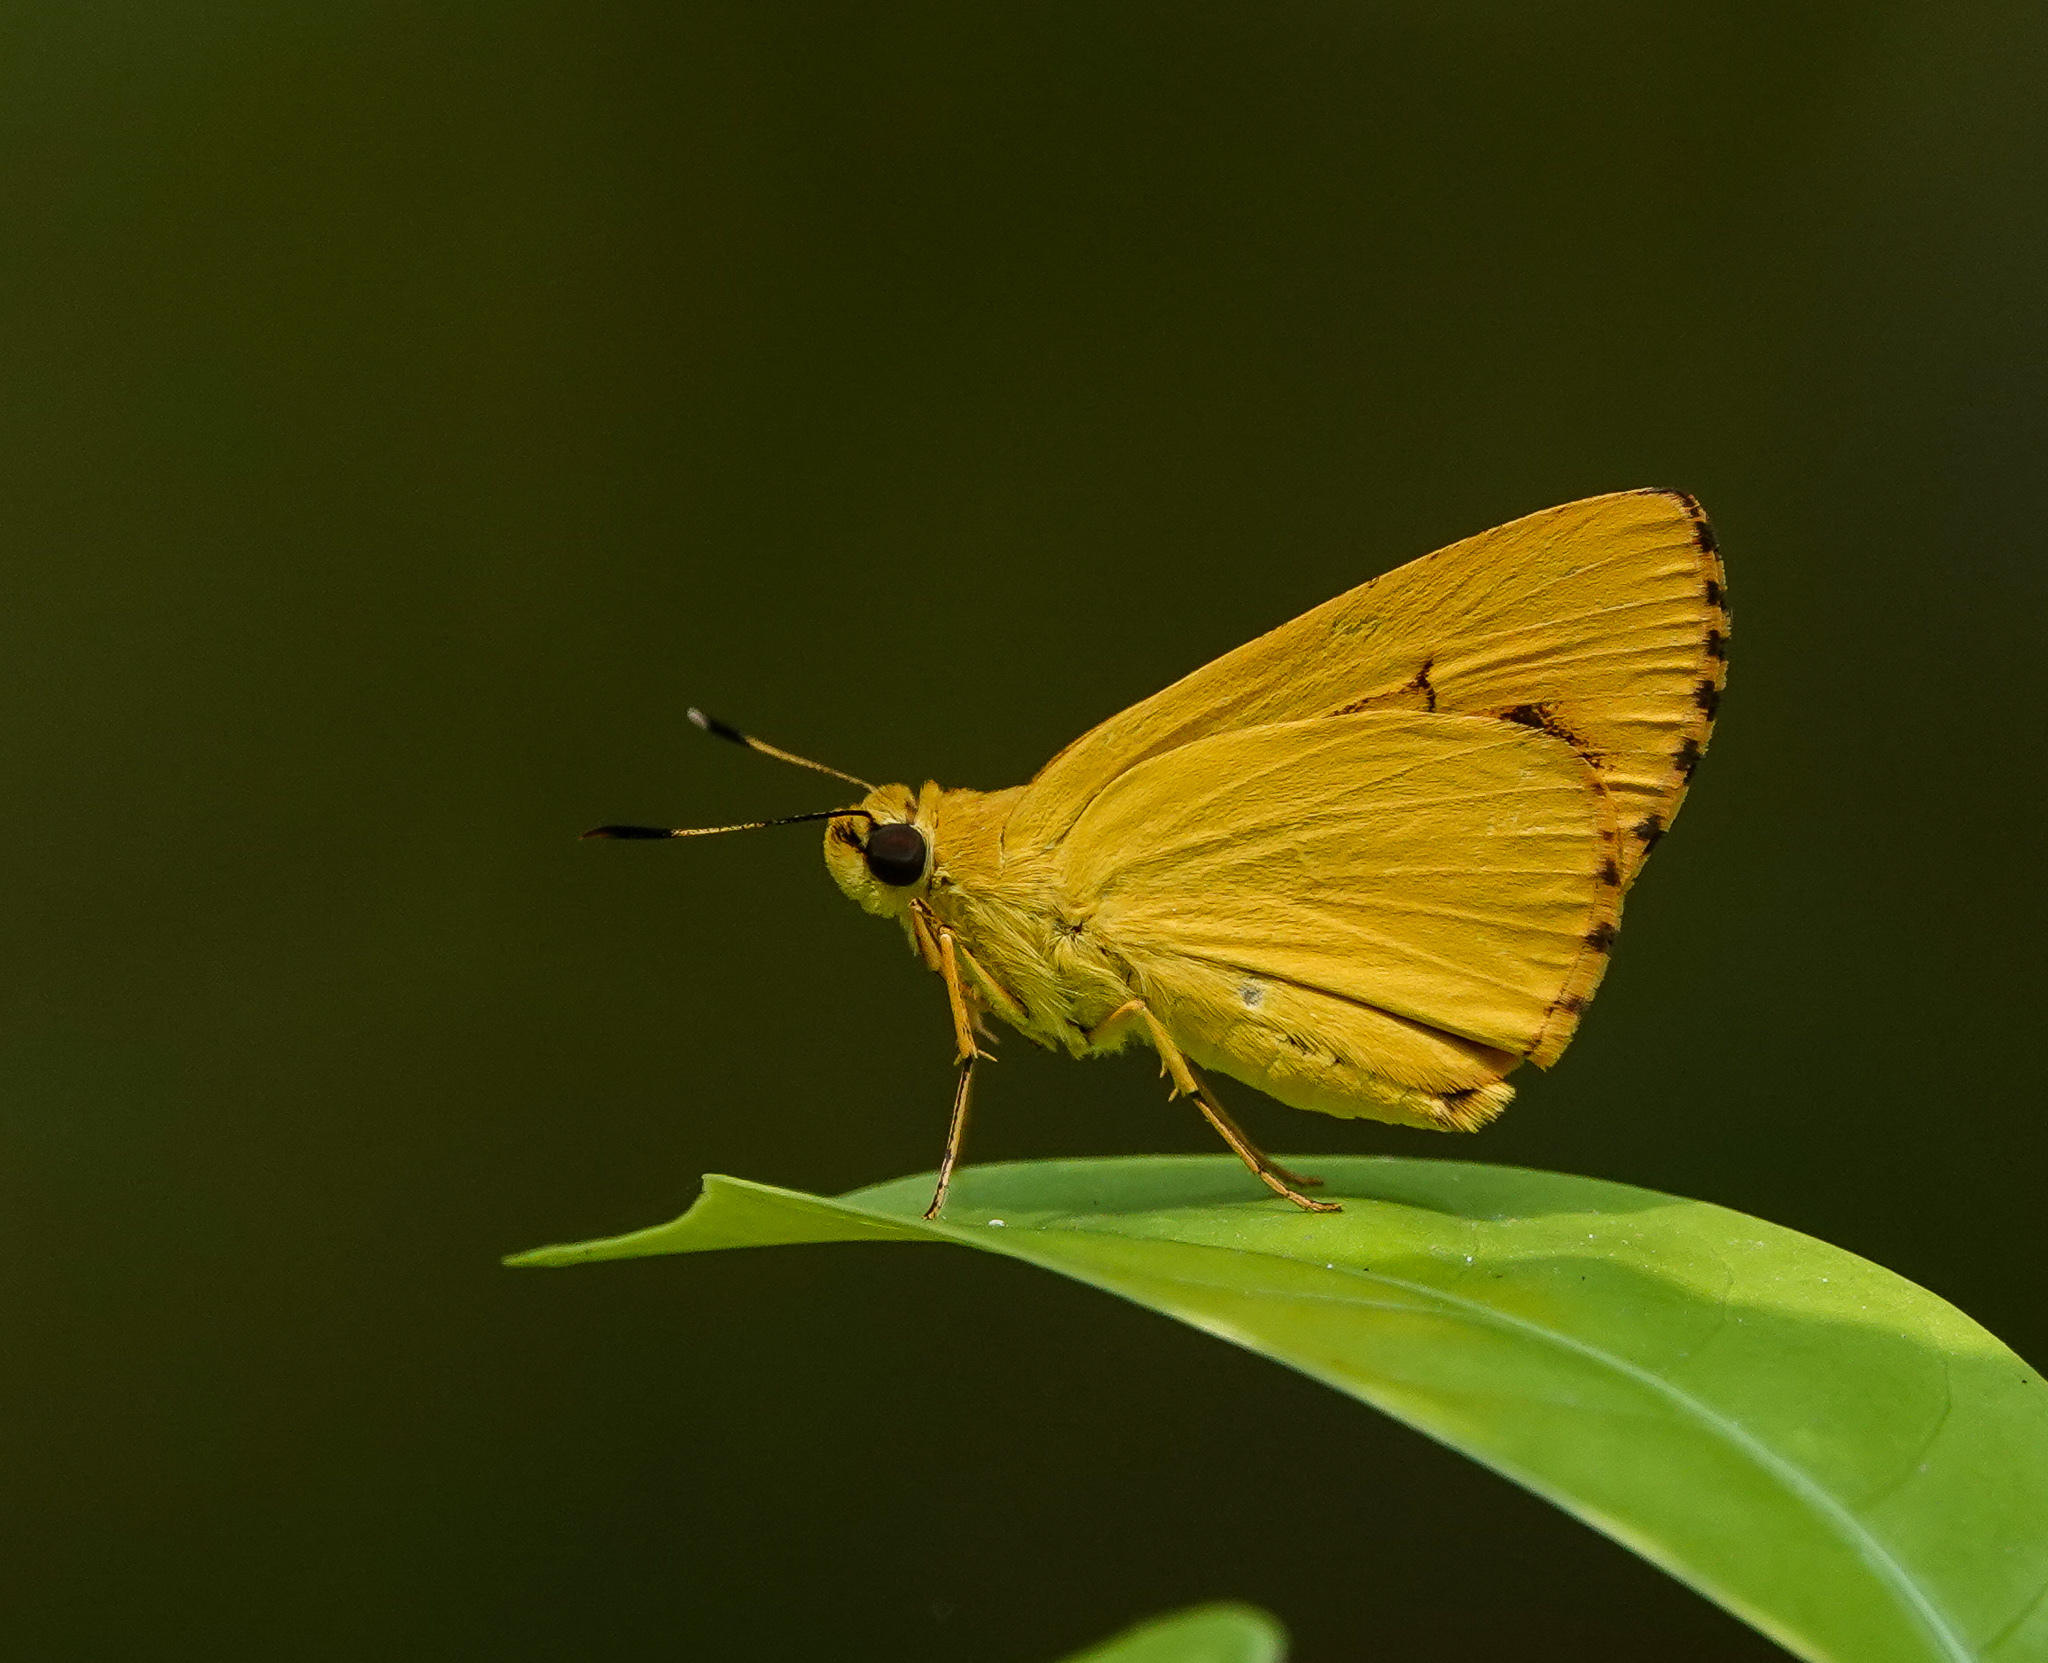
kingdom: Animalia
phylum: Arthropoda
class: Insecta
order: Lepidoptera
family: Hesperiidae
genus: Cupitha
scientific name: Cupitha purreea
